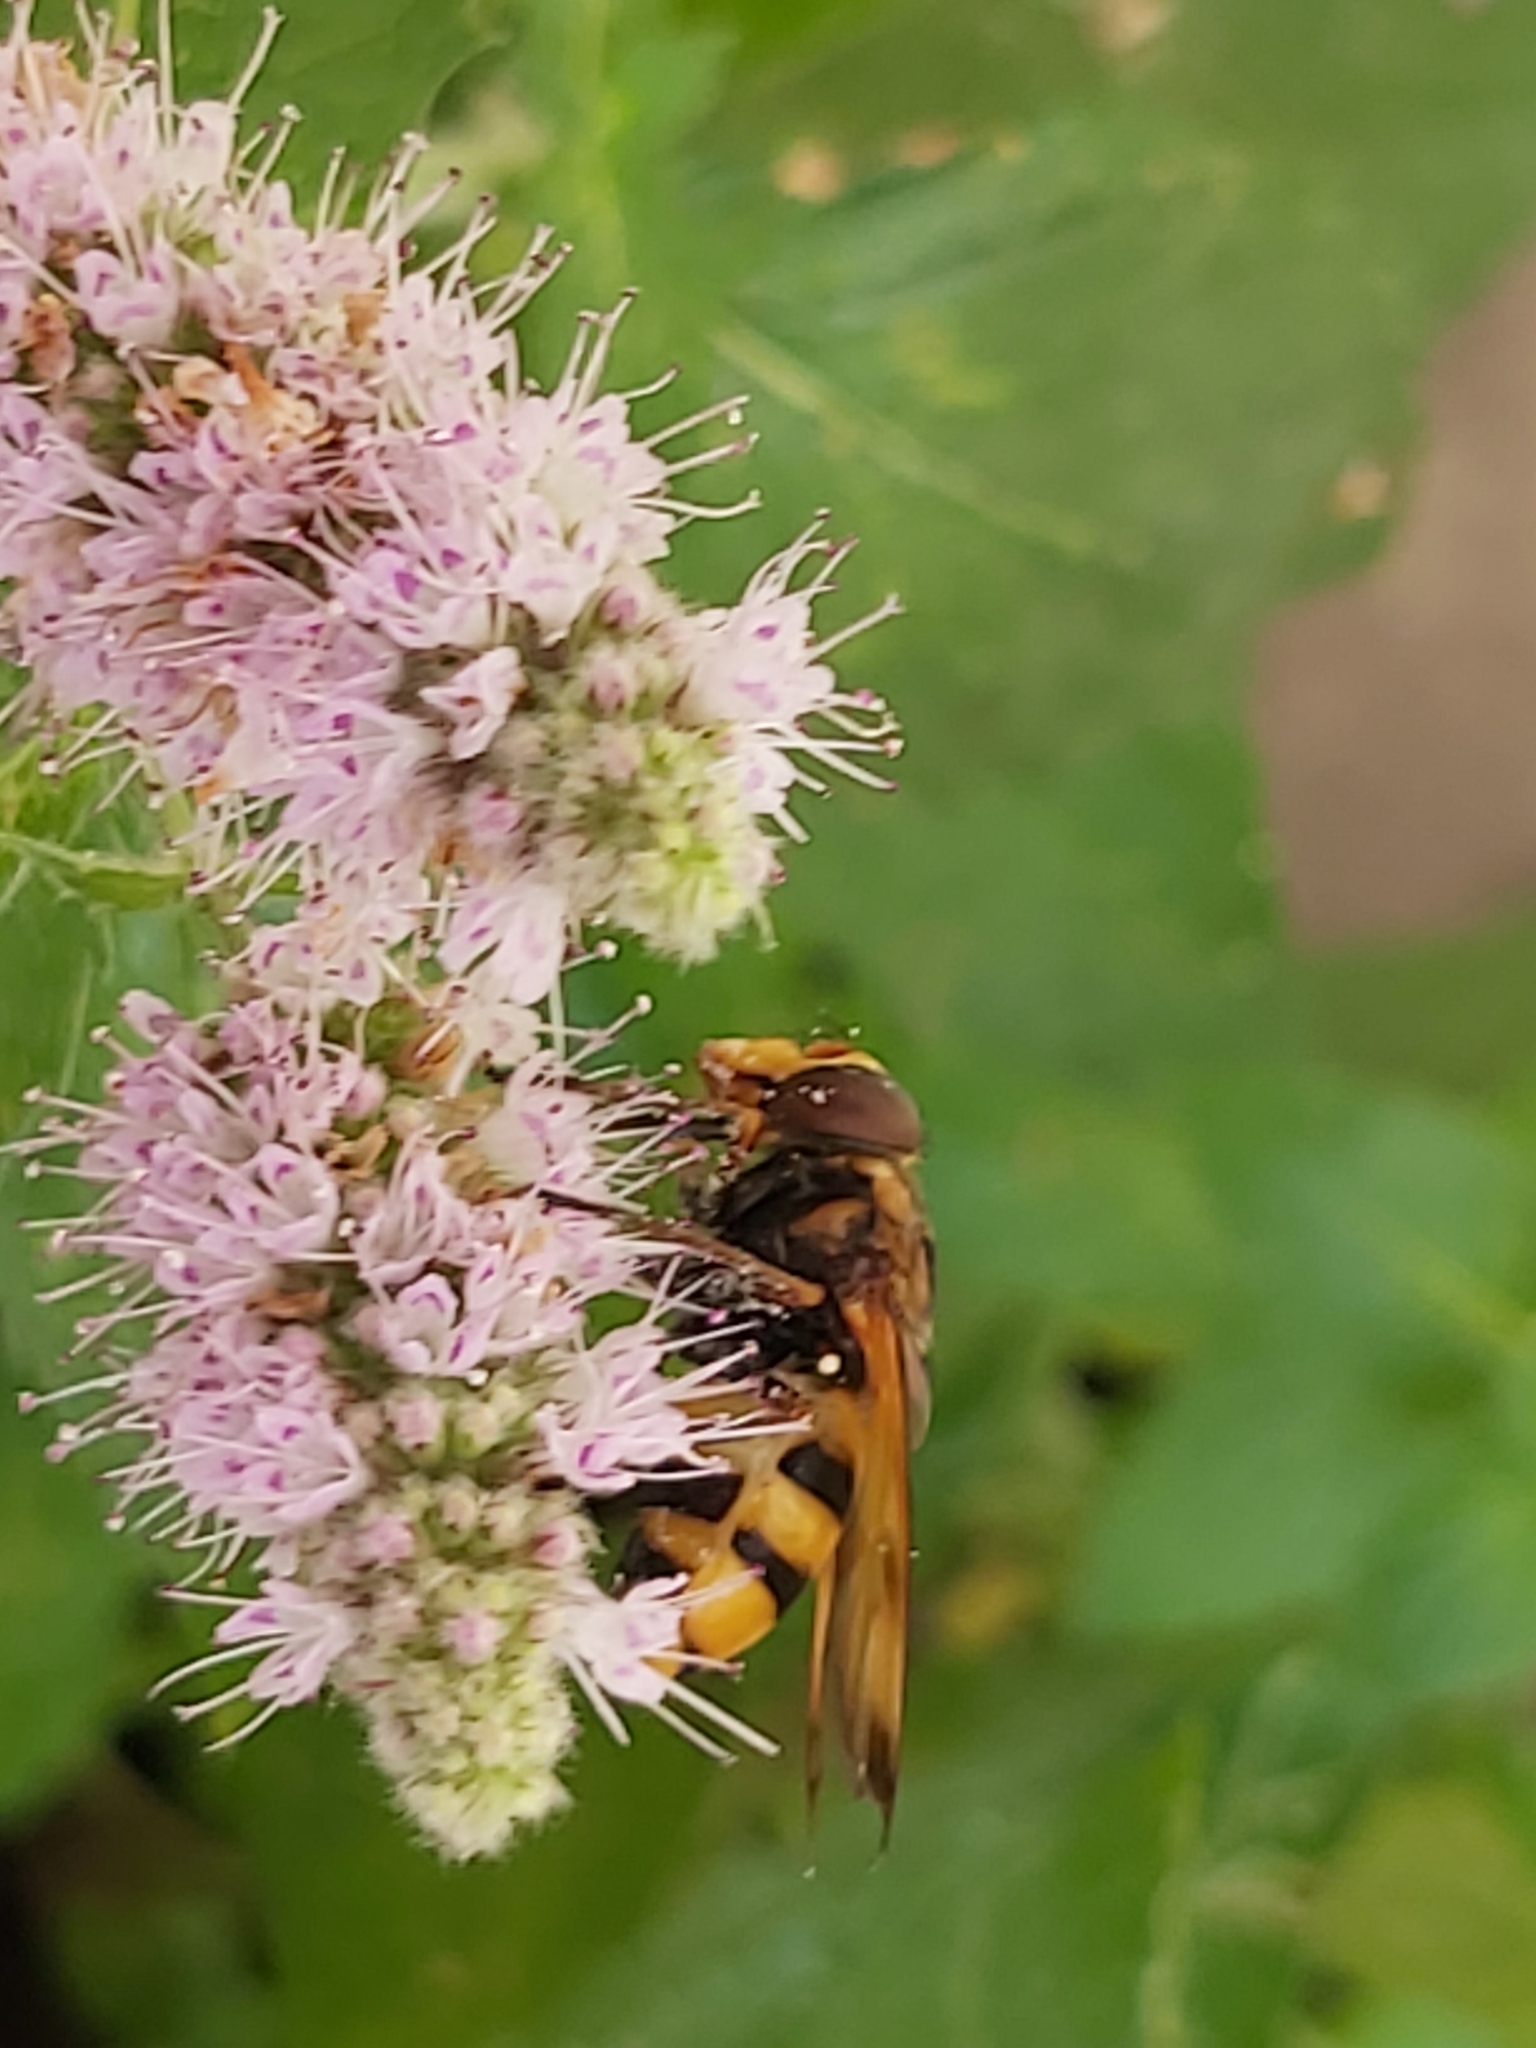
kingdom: Animalia
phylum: Arthropoda
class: Insecta
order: Diptera
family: Syrphidae
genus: Volucella
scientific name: Volucella inanis
